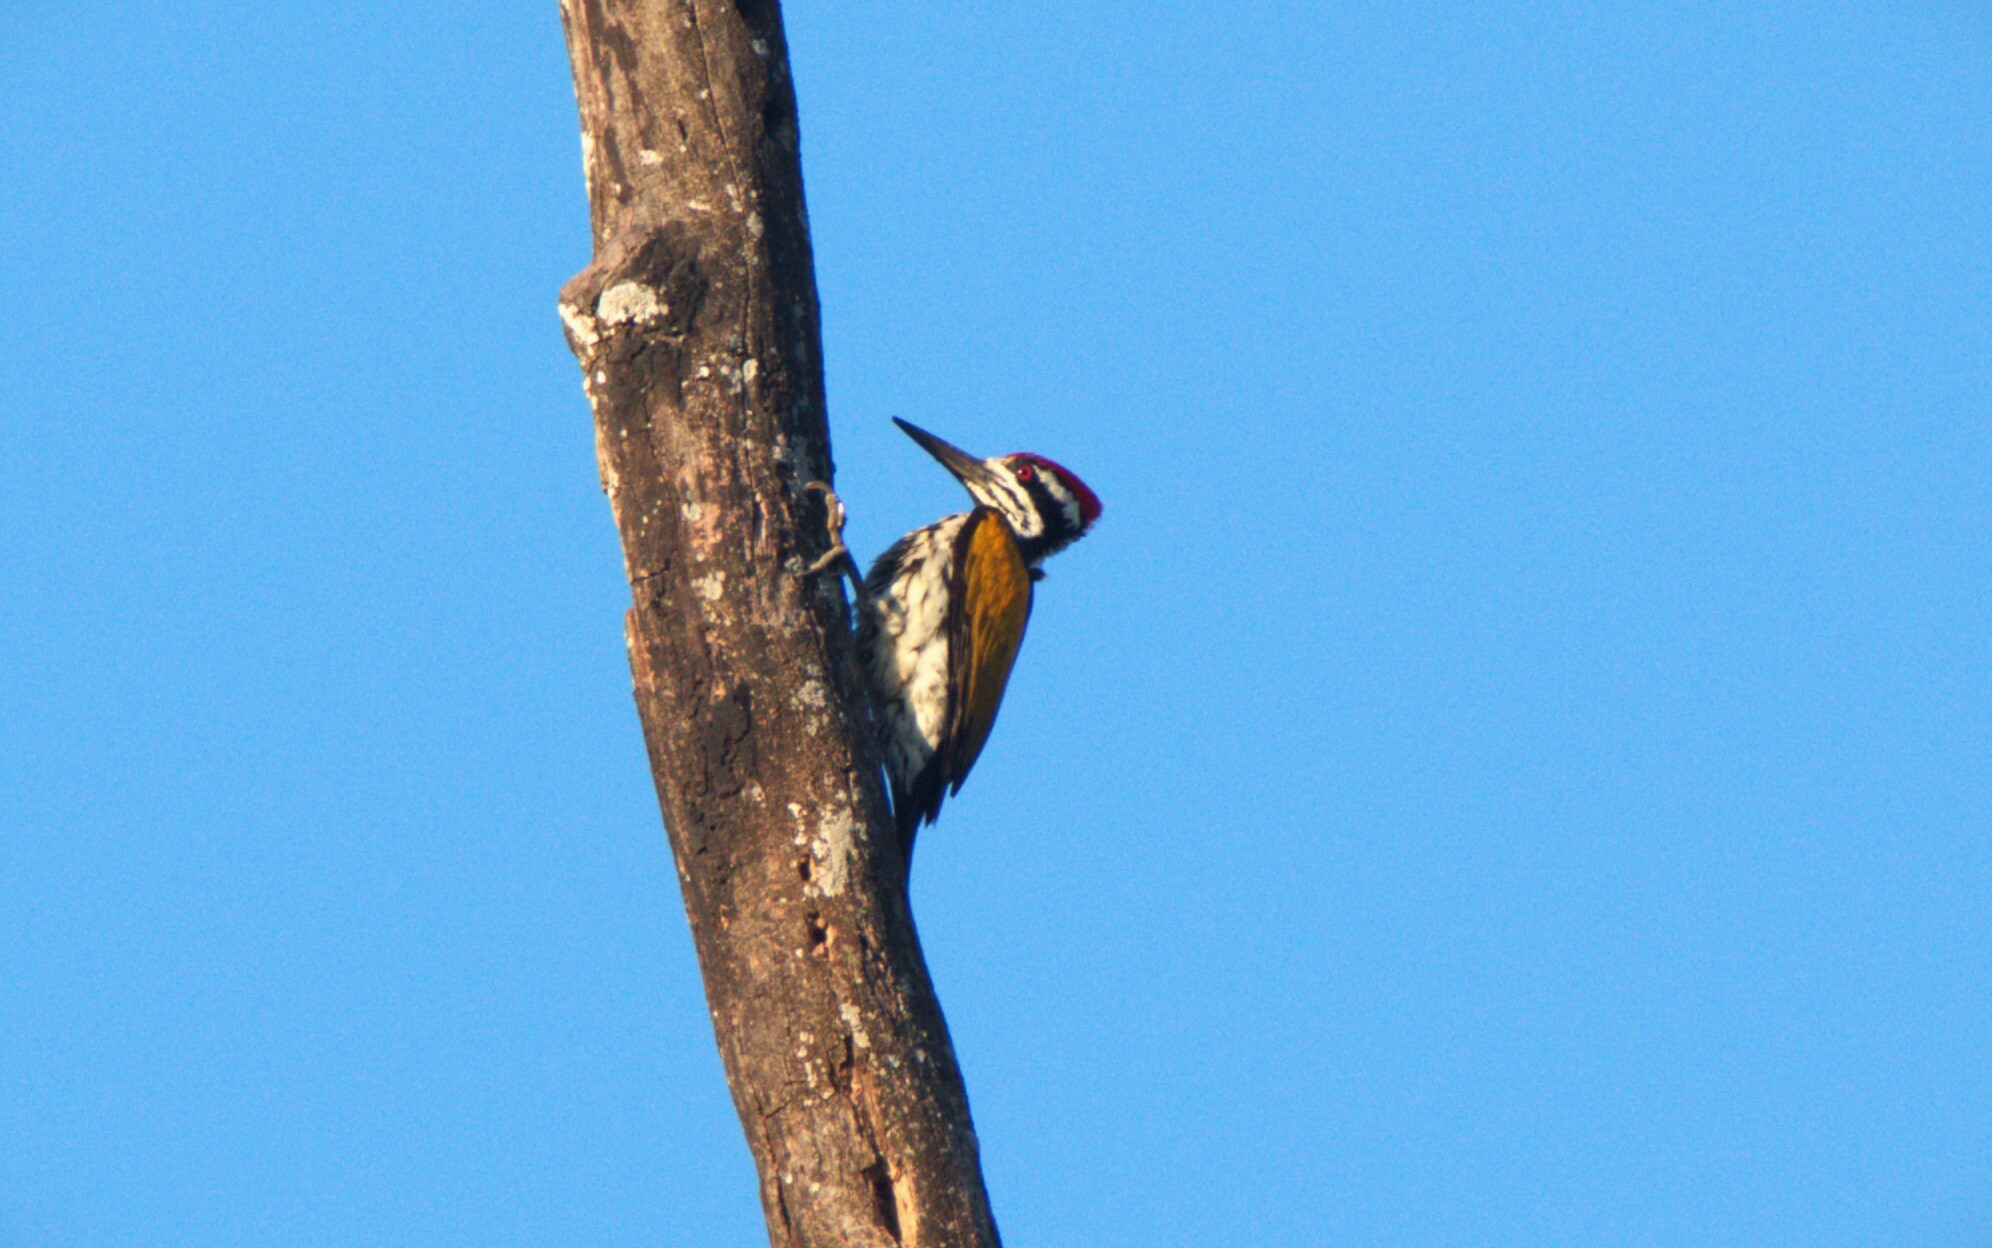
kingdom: Animalia
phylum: Chordata
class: Aves
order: Piciformes
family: Picidae
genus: Chrysocolaptes
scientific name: Chrysocolaptes festivus
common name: White-naped woodpecker
